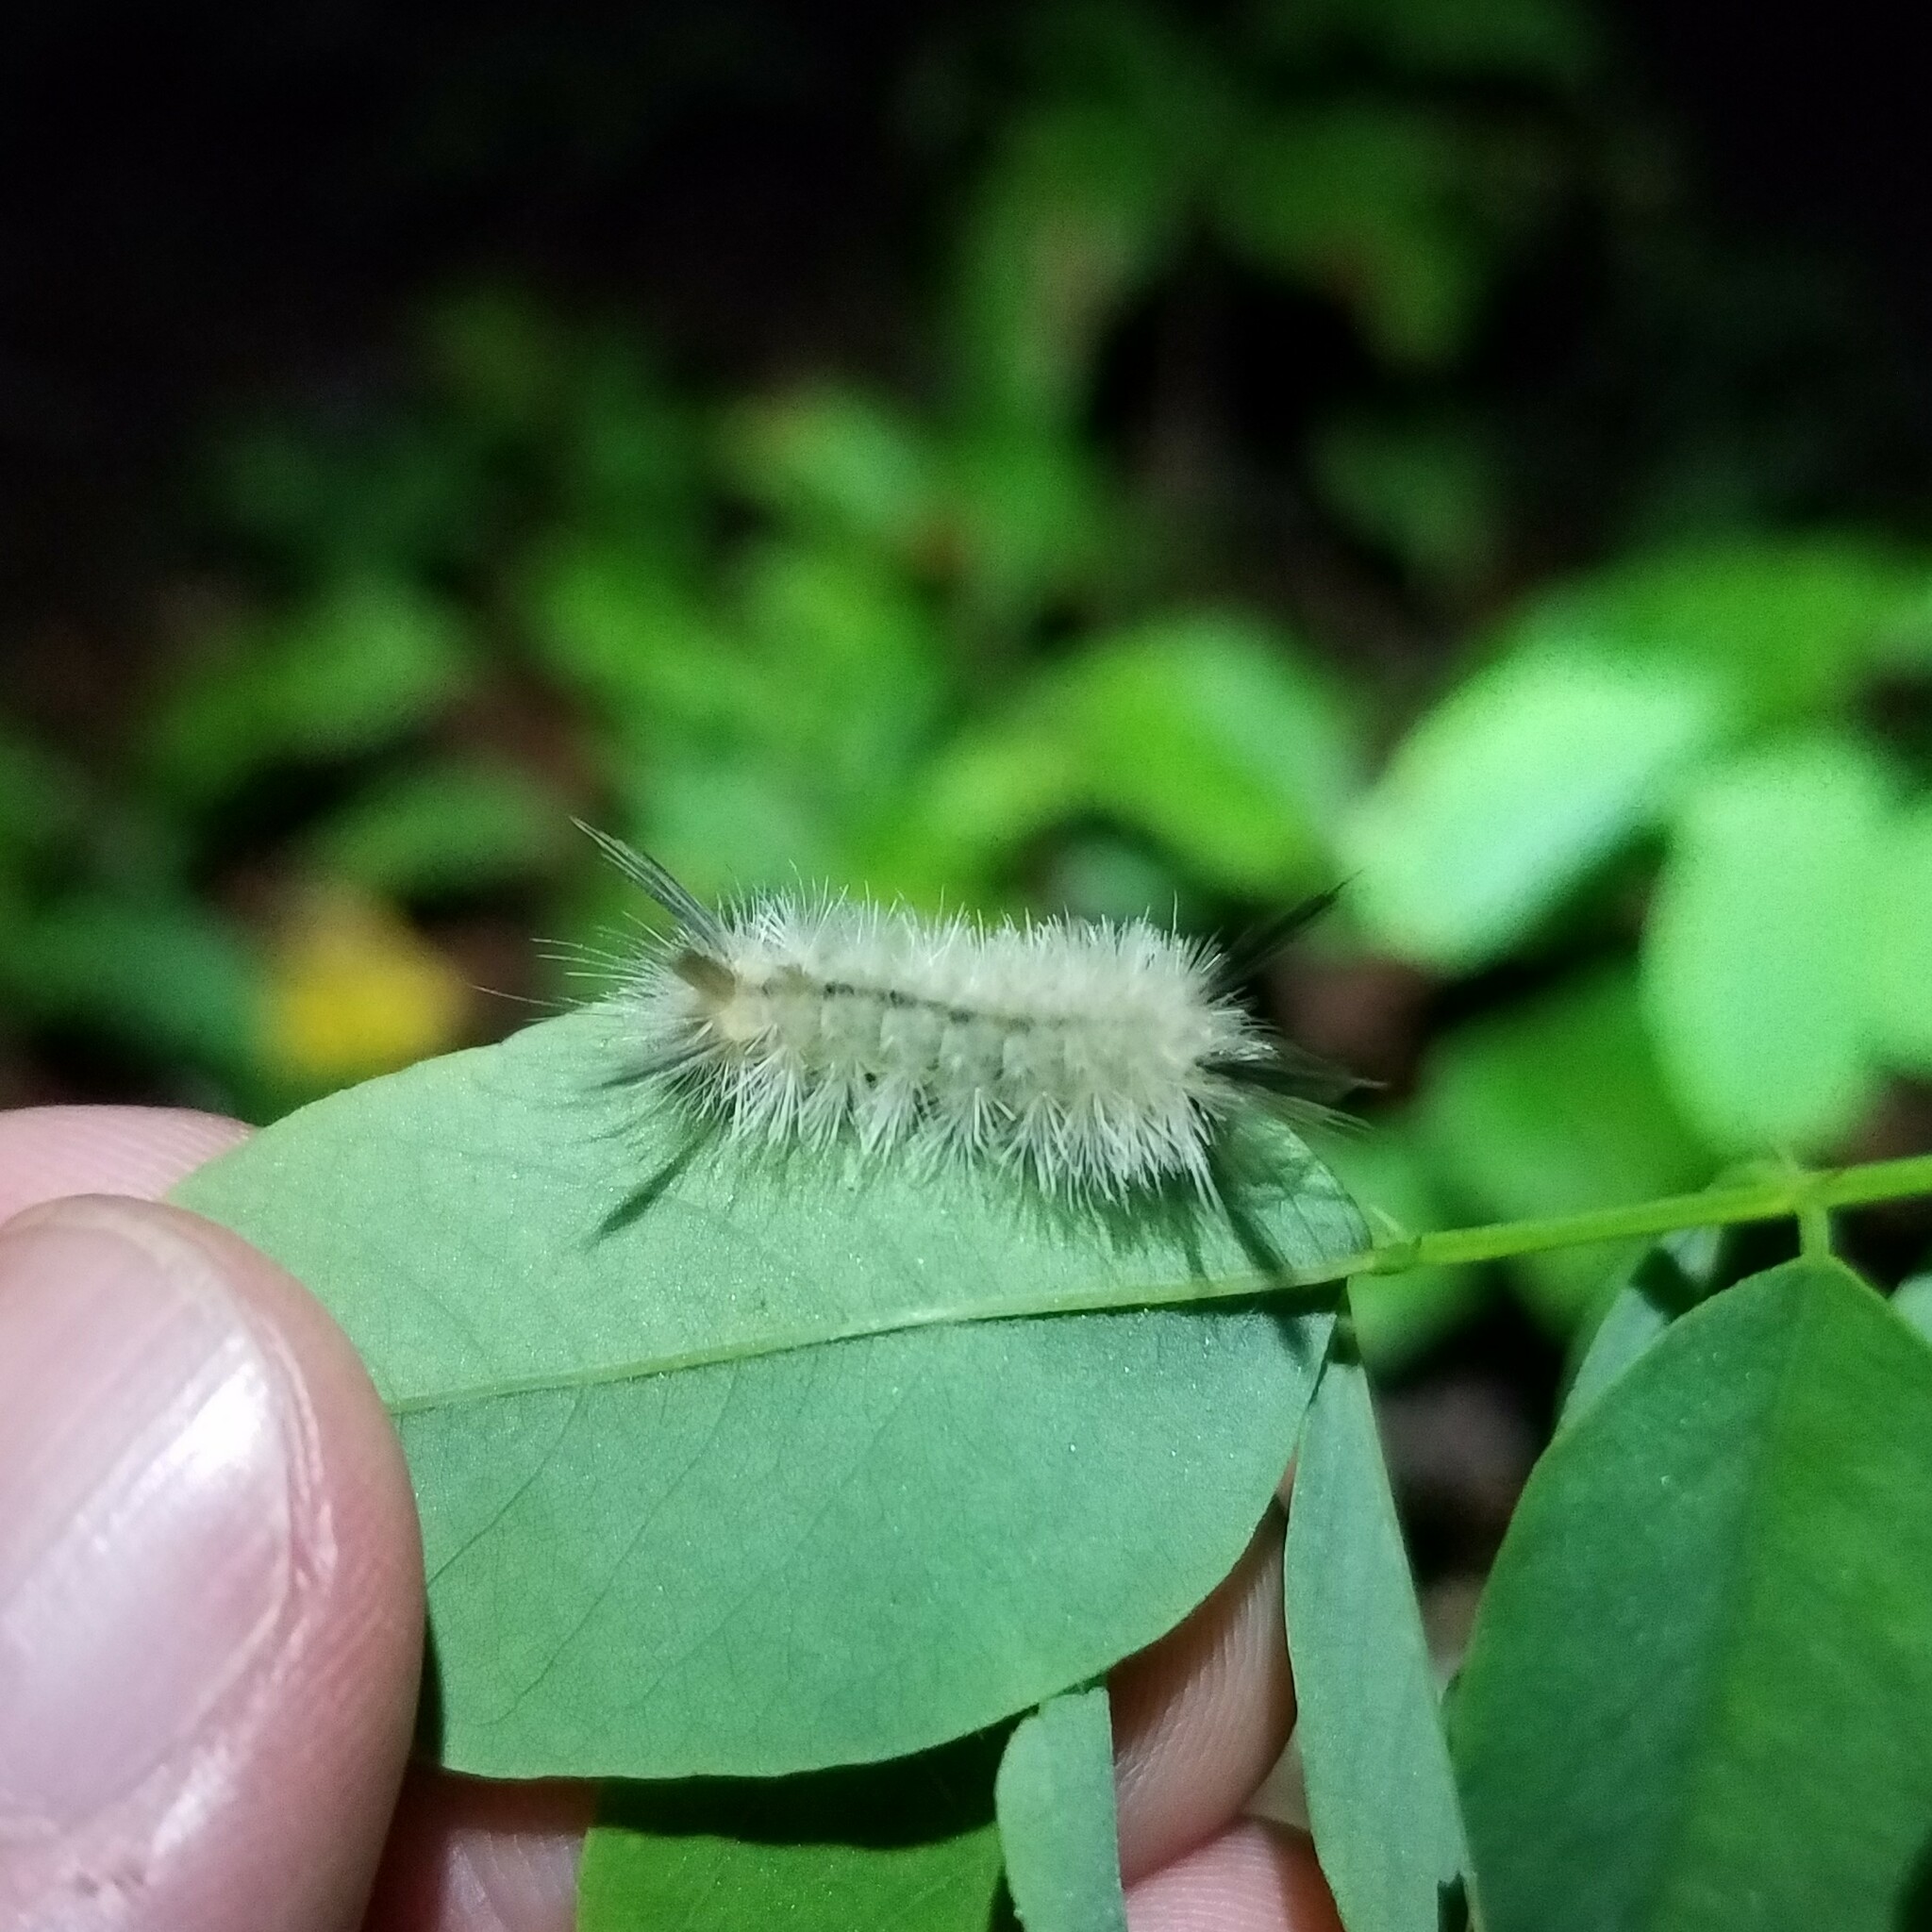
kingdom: Animalia
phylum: Arthropoda
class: Insecta
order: Lepidoptera
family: Erebidae
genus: Halysidota
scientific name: Halysidota tessellaris
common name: Banded tussock moth
